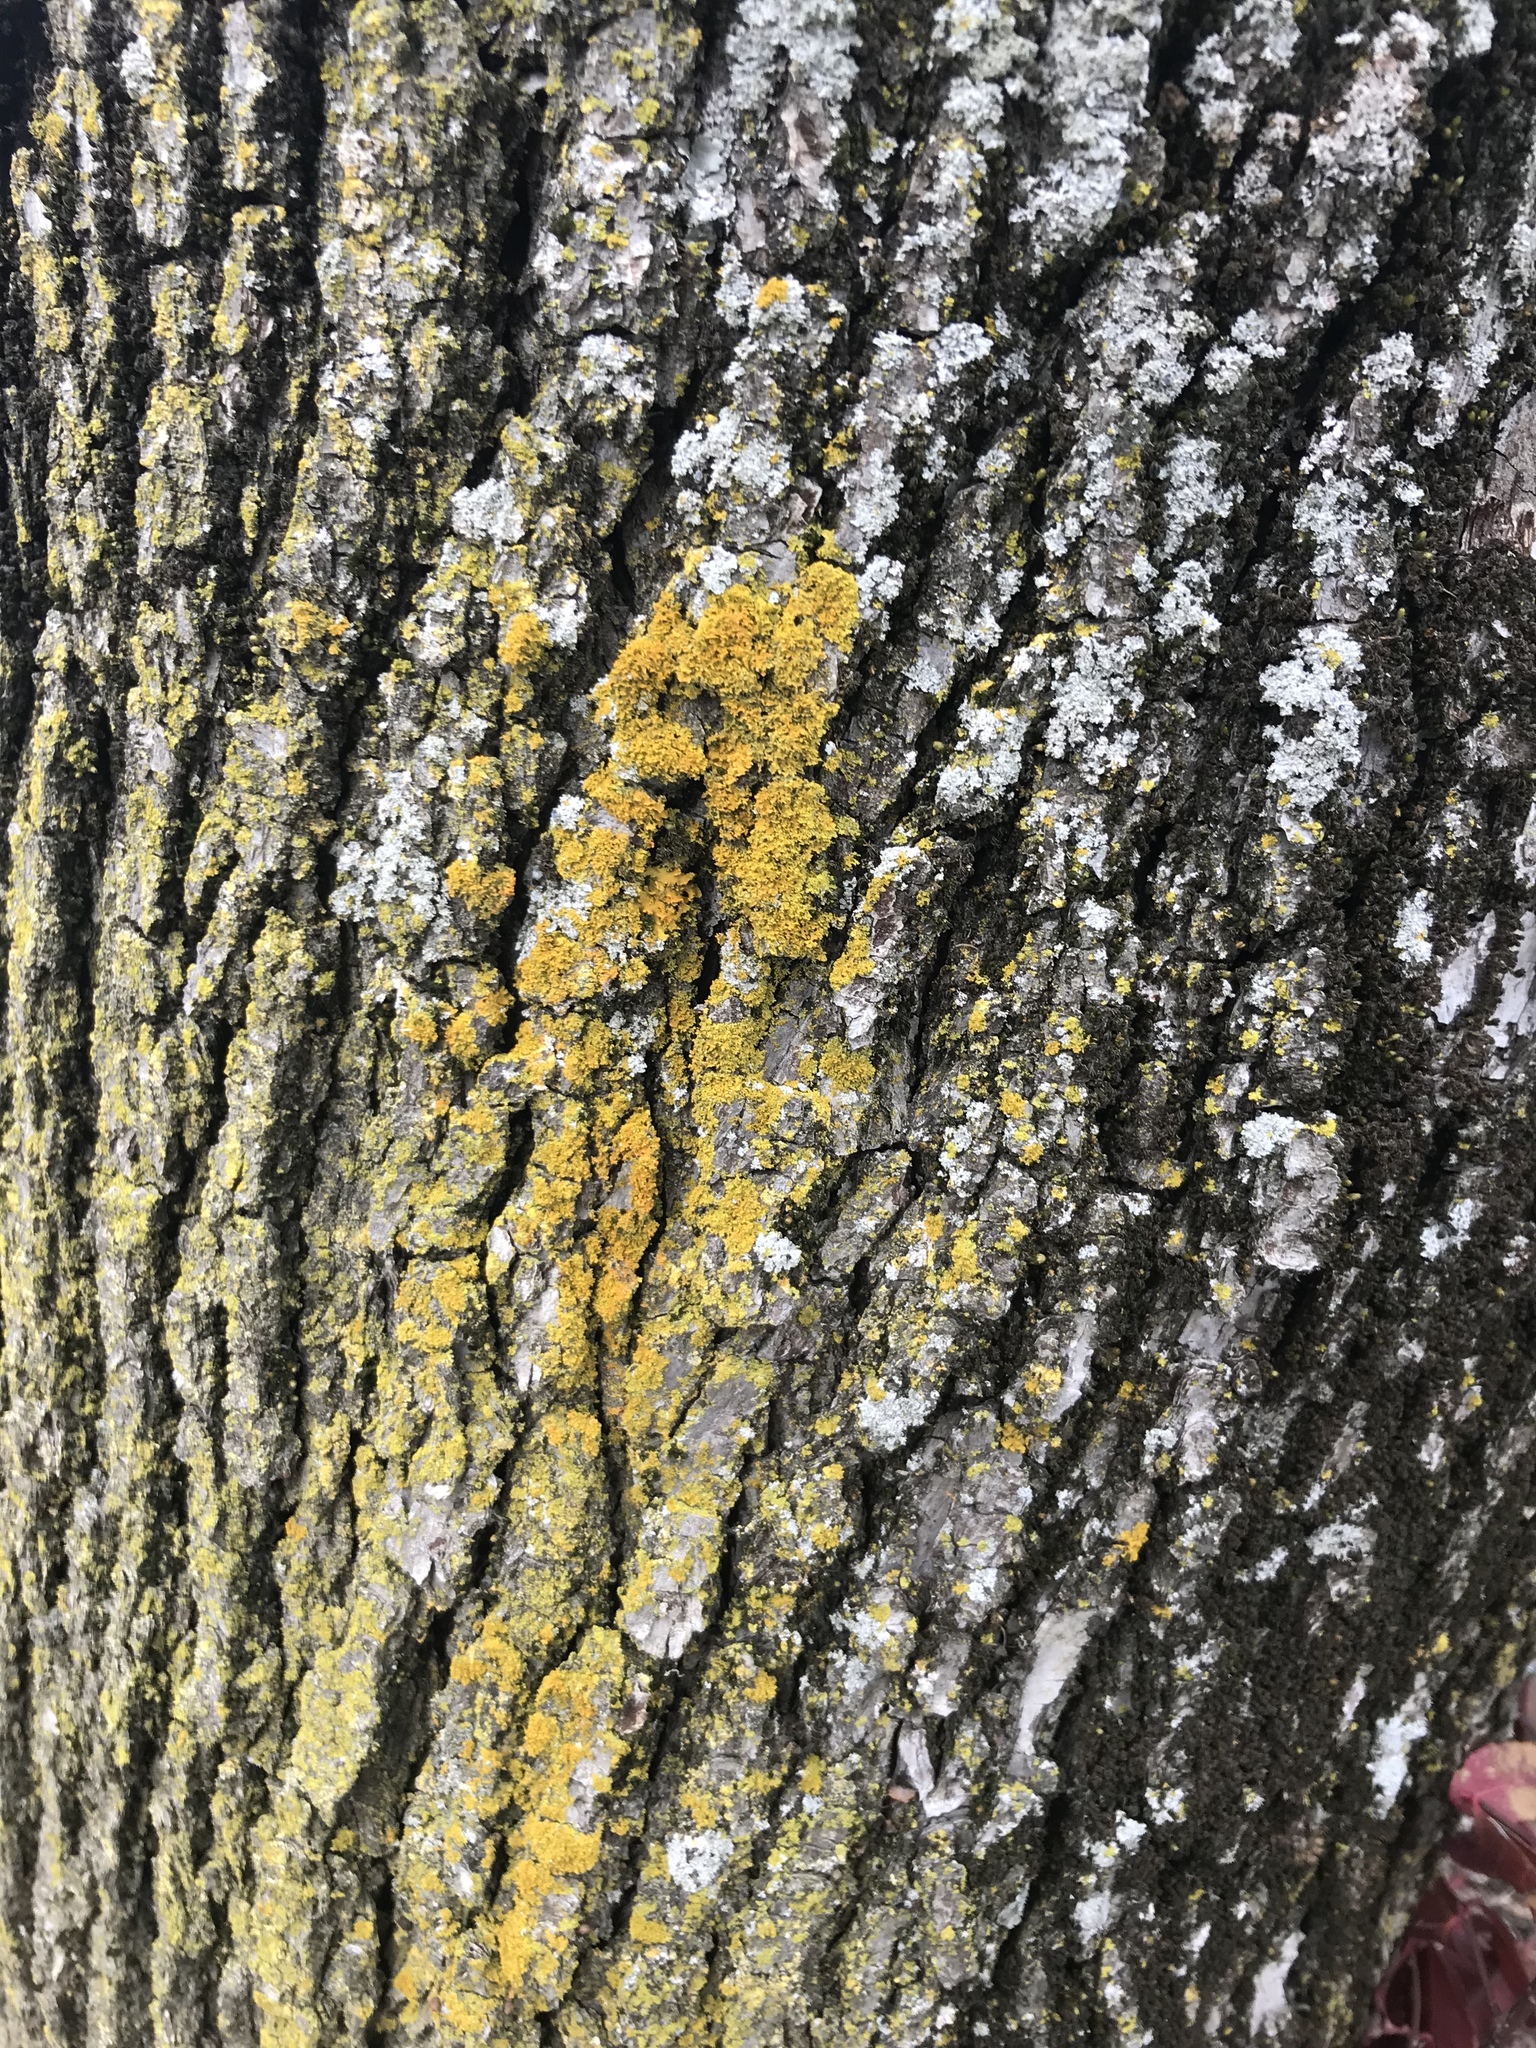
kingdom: Fungi
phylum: Ascomycota
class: Lecanoromycetes
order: Teloschistales
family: Teloschistaceae
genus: Gallowayella
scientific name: Gallowayella weberi
